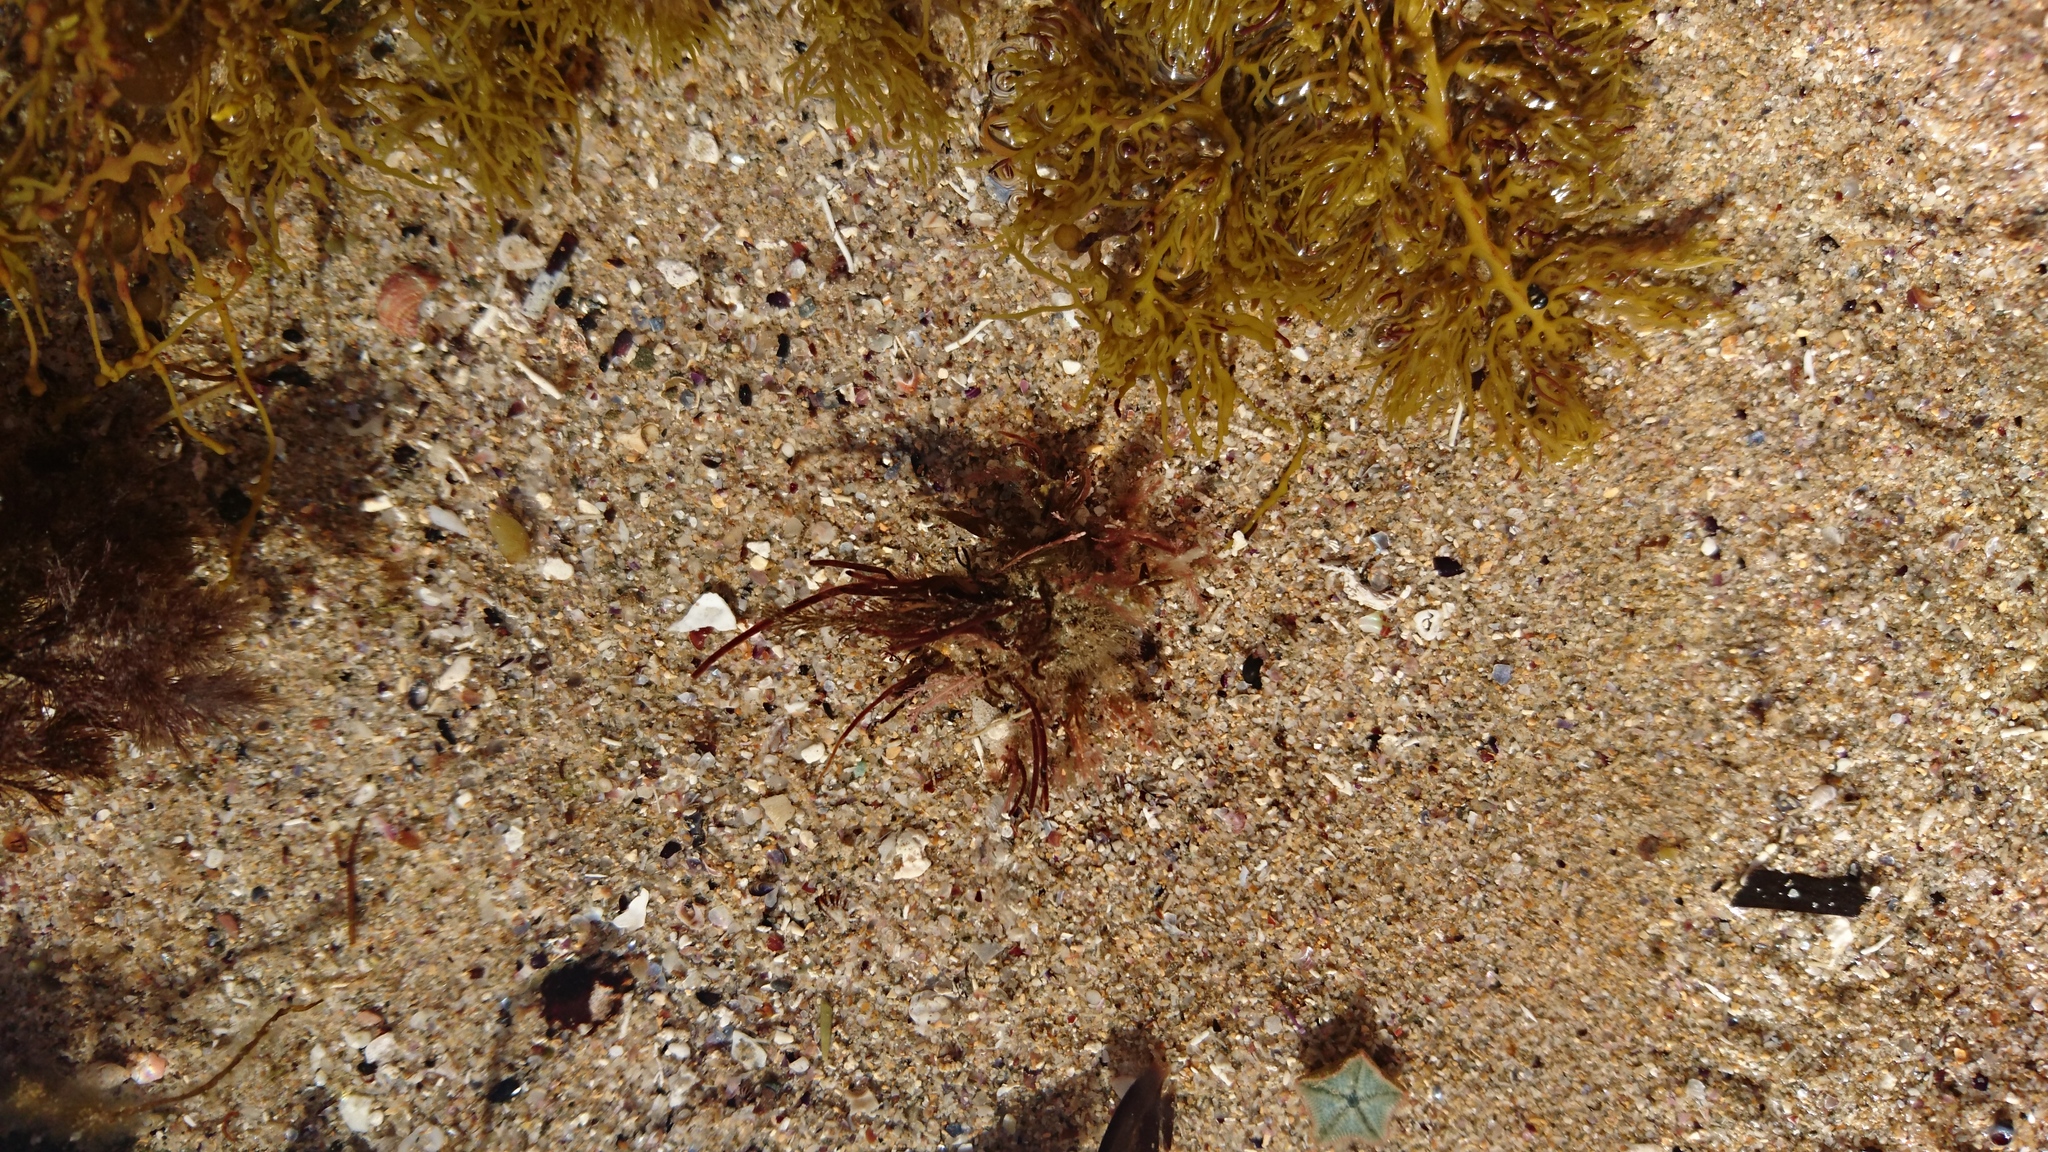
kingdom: Animalia
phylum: Arthropoda
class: Malacostraca
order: Decapoda
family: Majidae
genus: Notomithrax
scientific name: Notomithrax ursus
